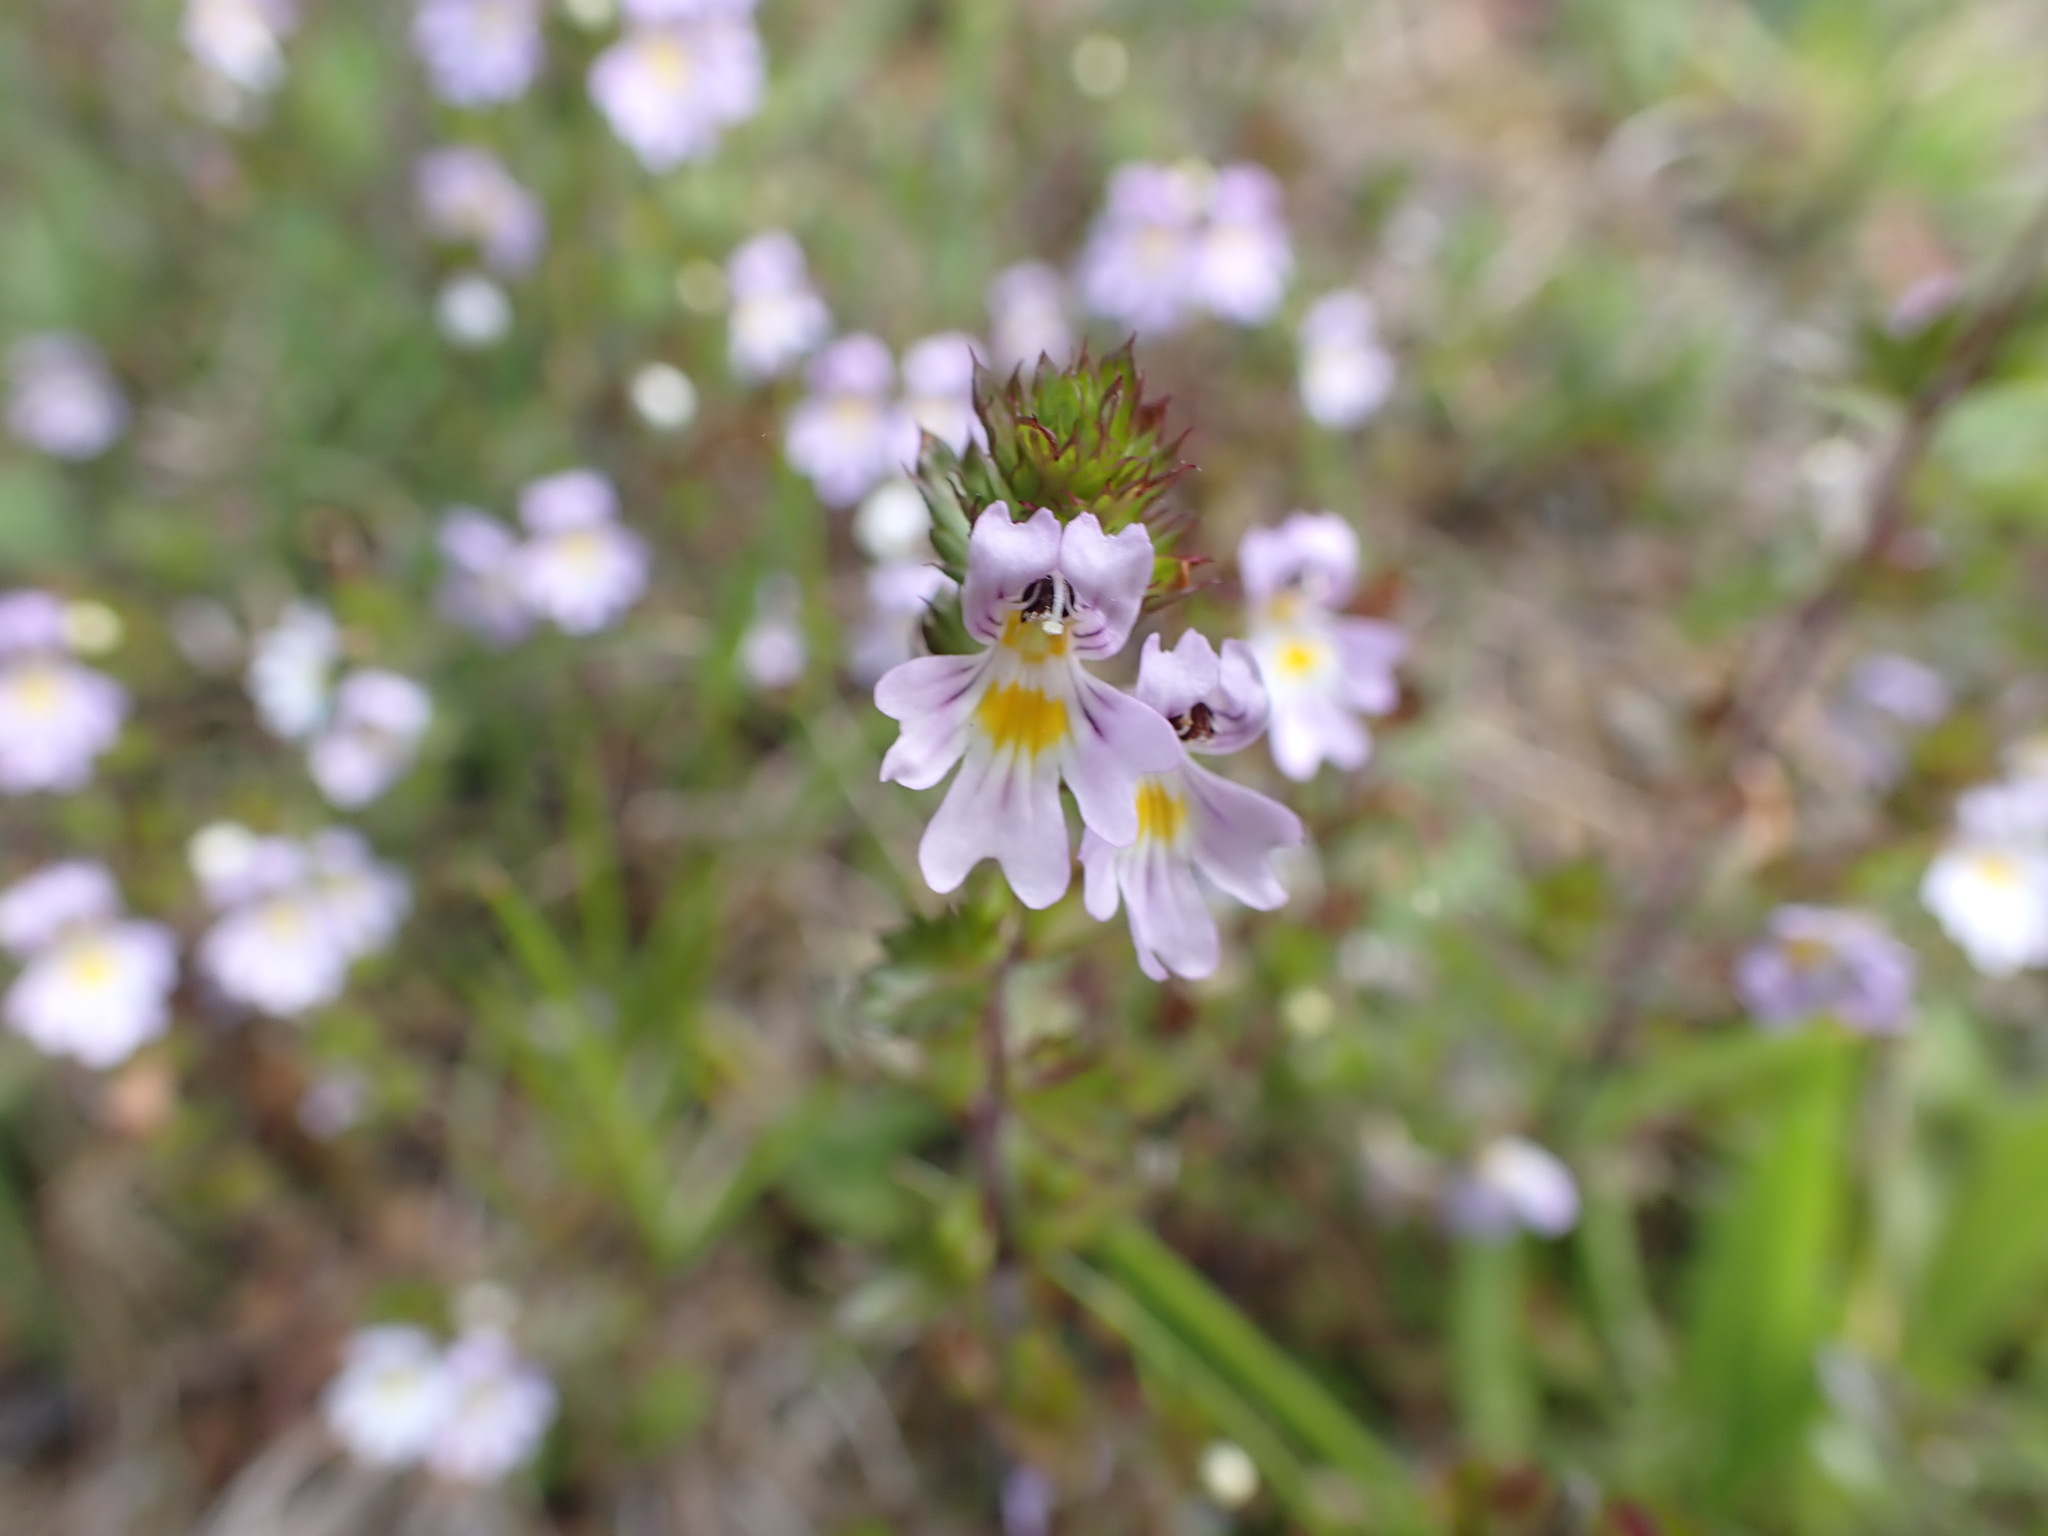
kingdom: Plantae
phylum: Tracheophyta
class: Magnoliopsida
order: Lamiales
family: Orobanchaceae
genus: Euphrasia
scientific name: Euphrasia nemorosa
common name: Common eyebright
